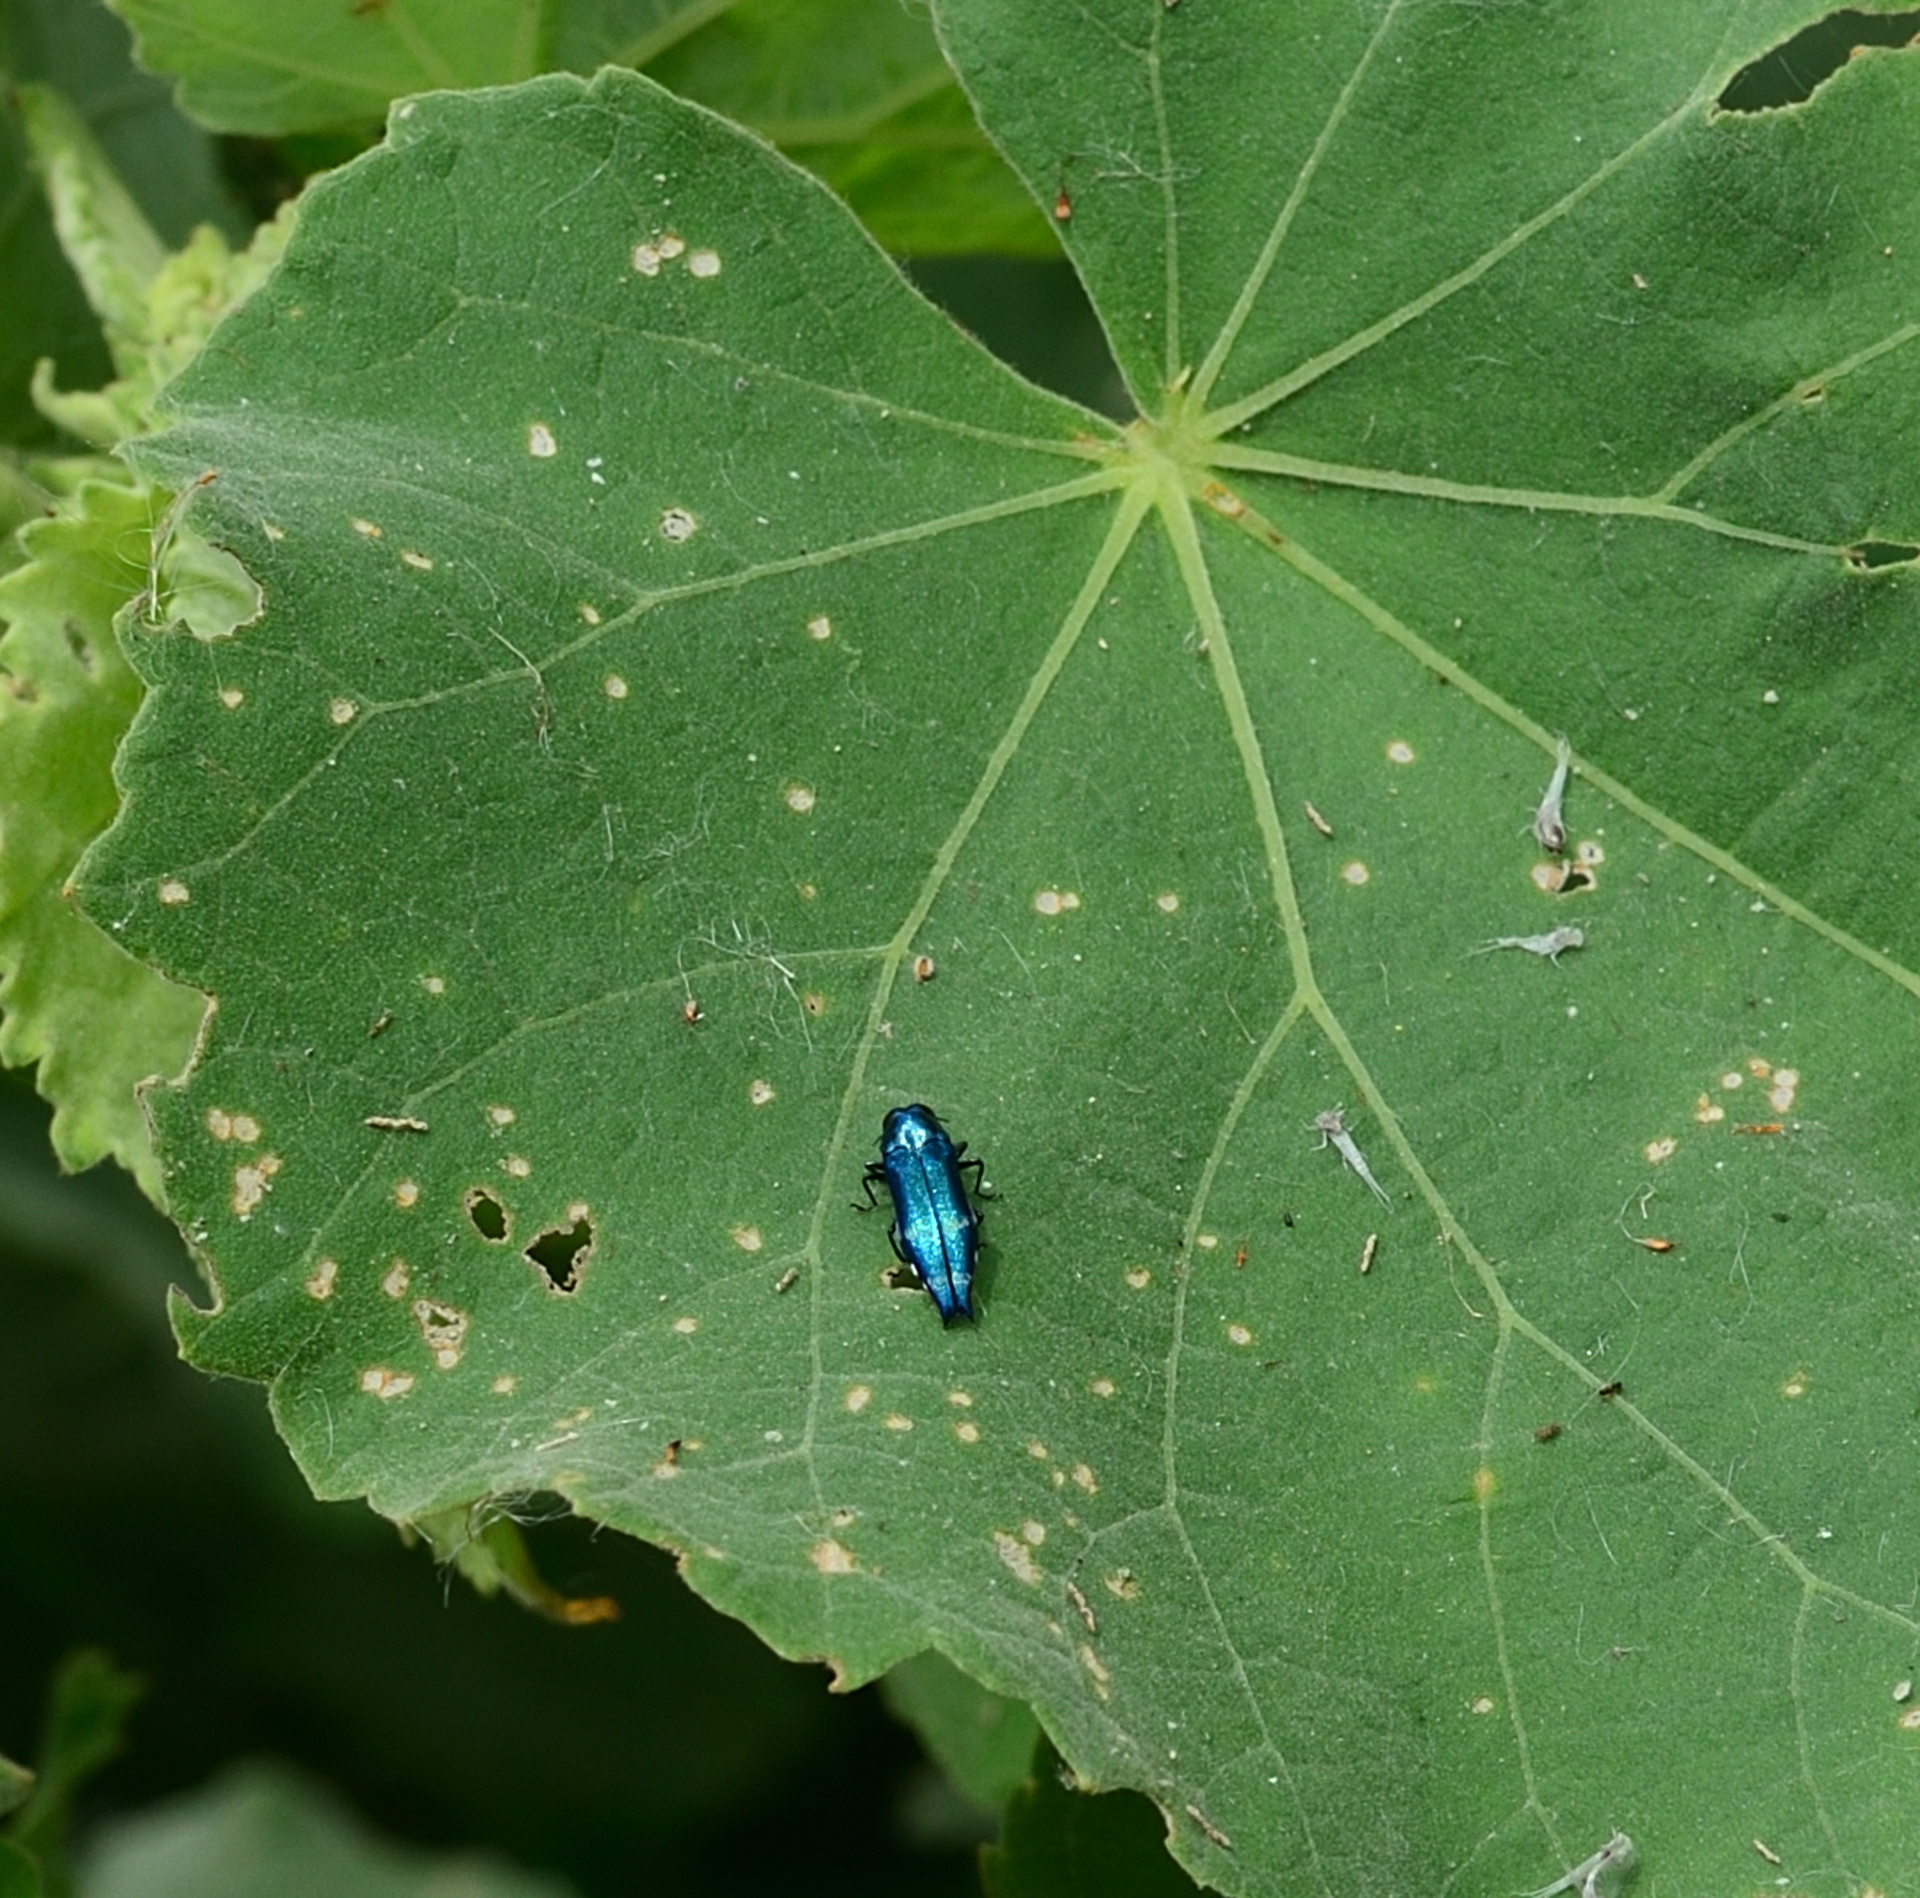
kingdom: Animalia
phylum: Arthropoda
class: Insecta
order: Coleoptera
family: Buprestidae
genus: Agrilus
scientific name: Agrilus acutus
